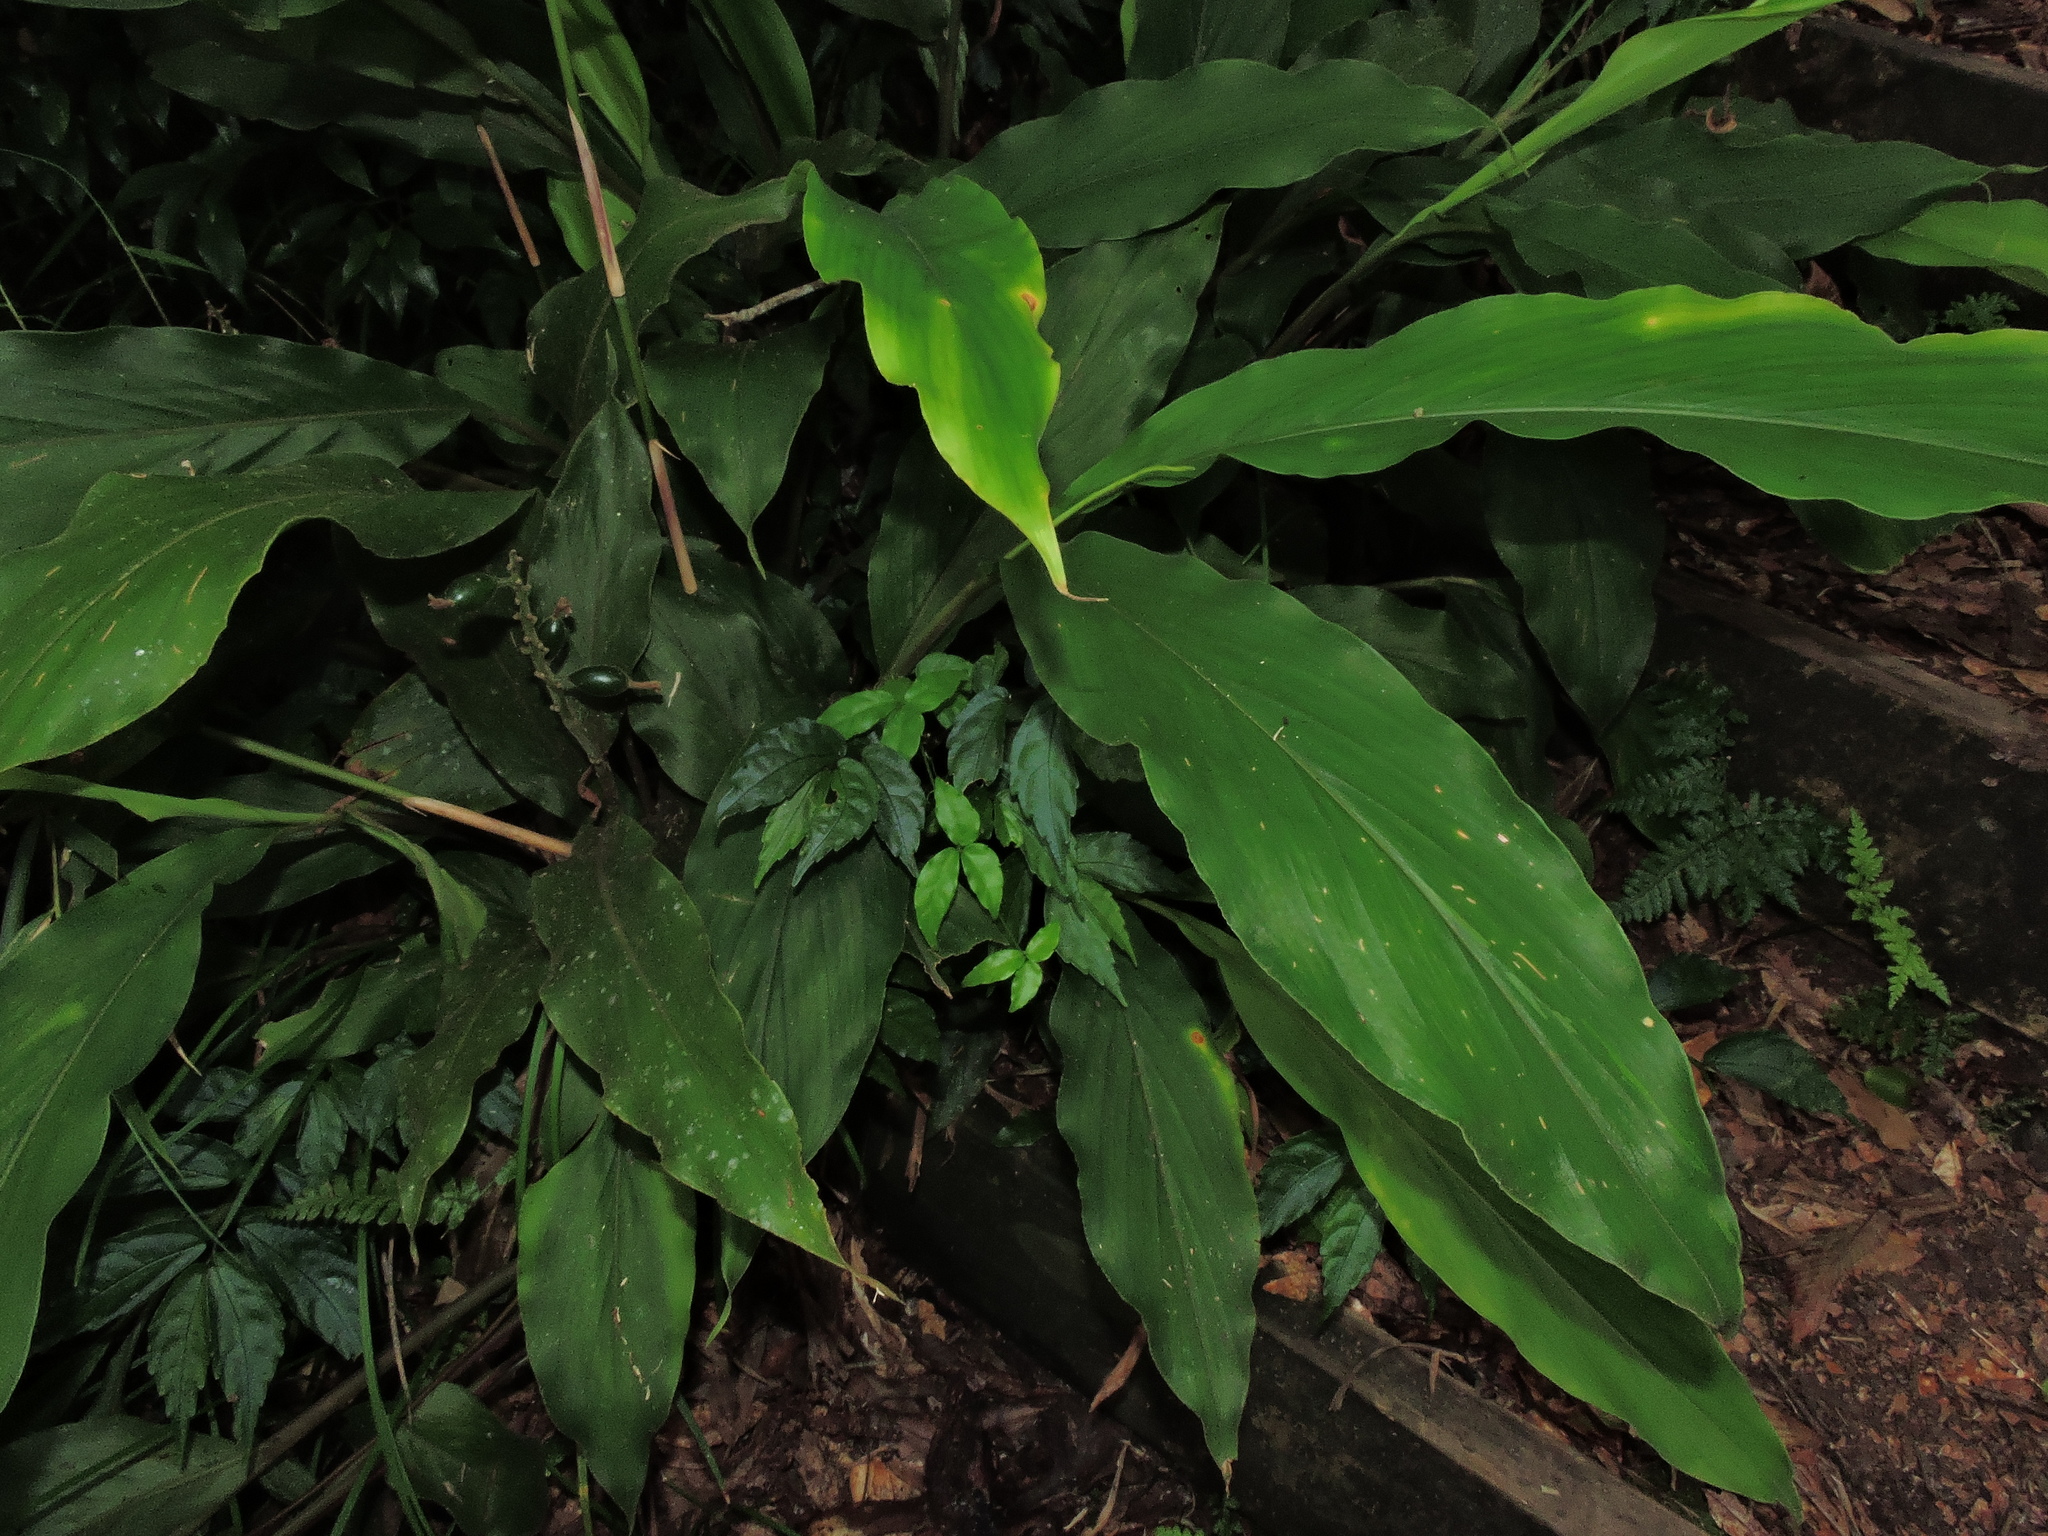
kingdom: Plantae
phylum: Tracheophyta
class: Liliopsida
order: Zingiberales
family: Zingiberaceae
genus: Alpinia
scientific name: Alpinia japonica
